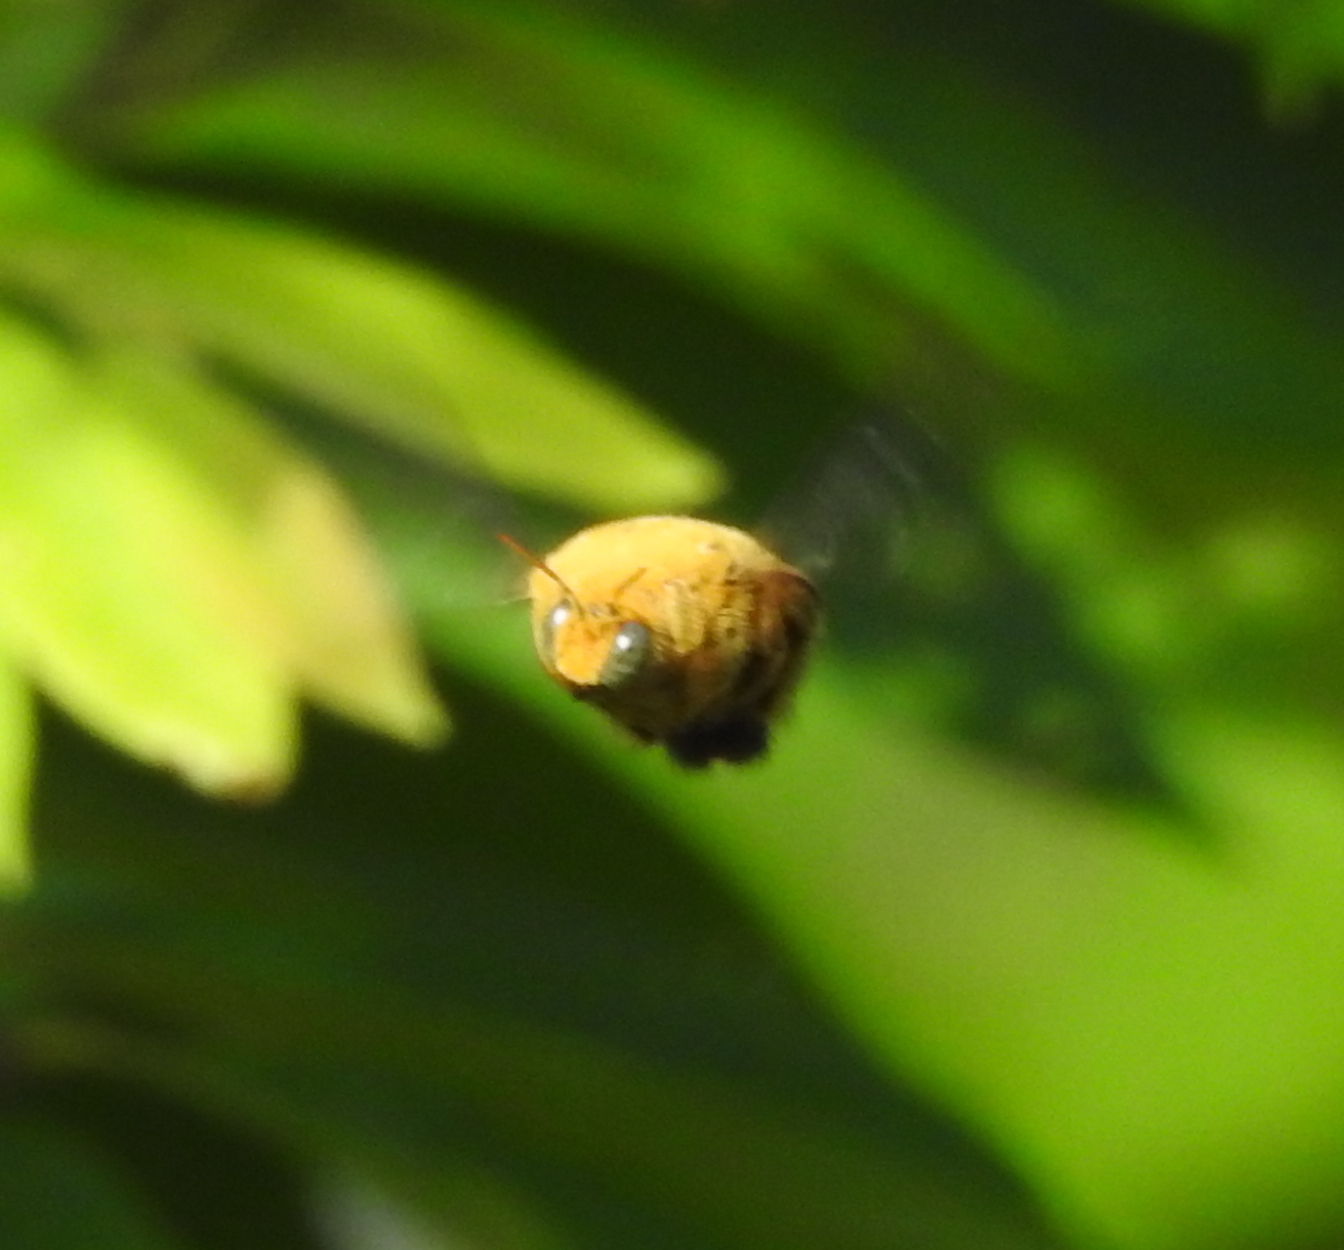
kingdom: Animalia
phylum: Arthropoda
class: Insecta
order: Hymenoptera
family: Apidae
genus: Xylocopa
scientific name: Xylocopa aestuans
